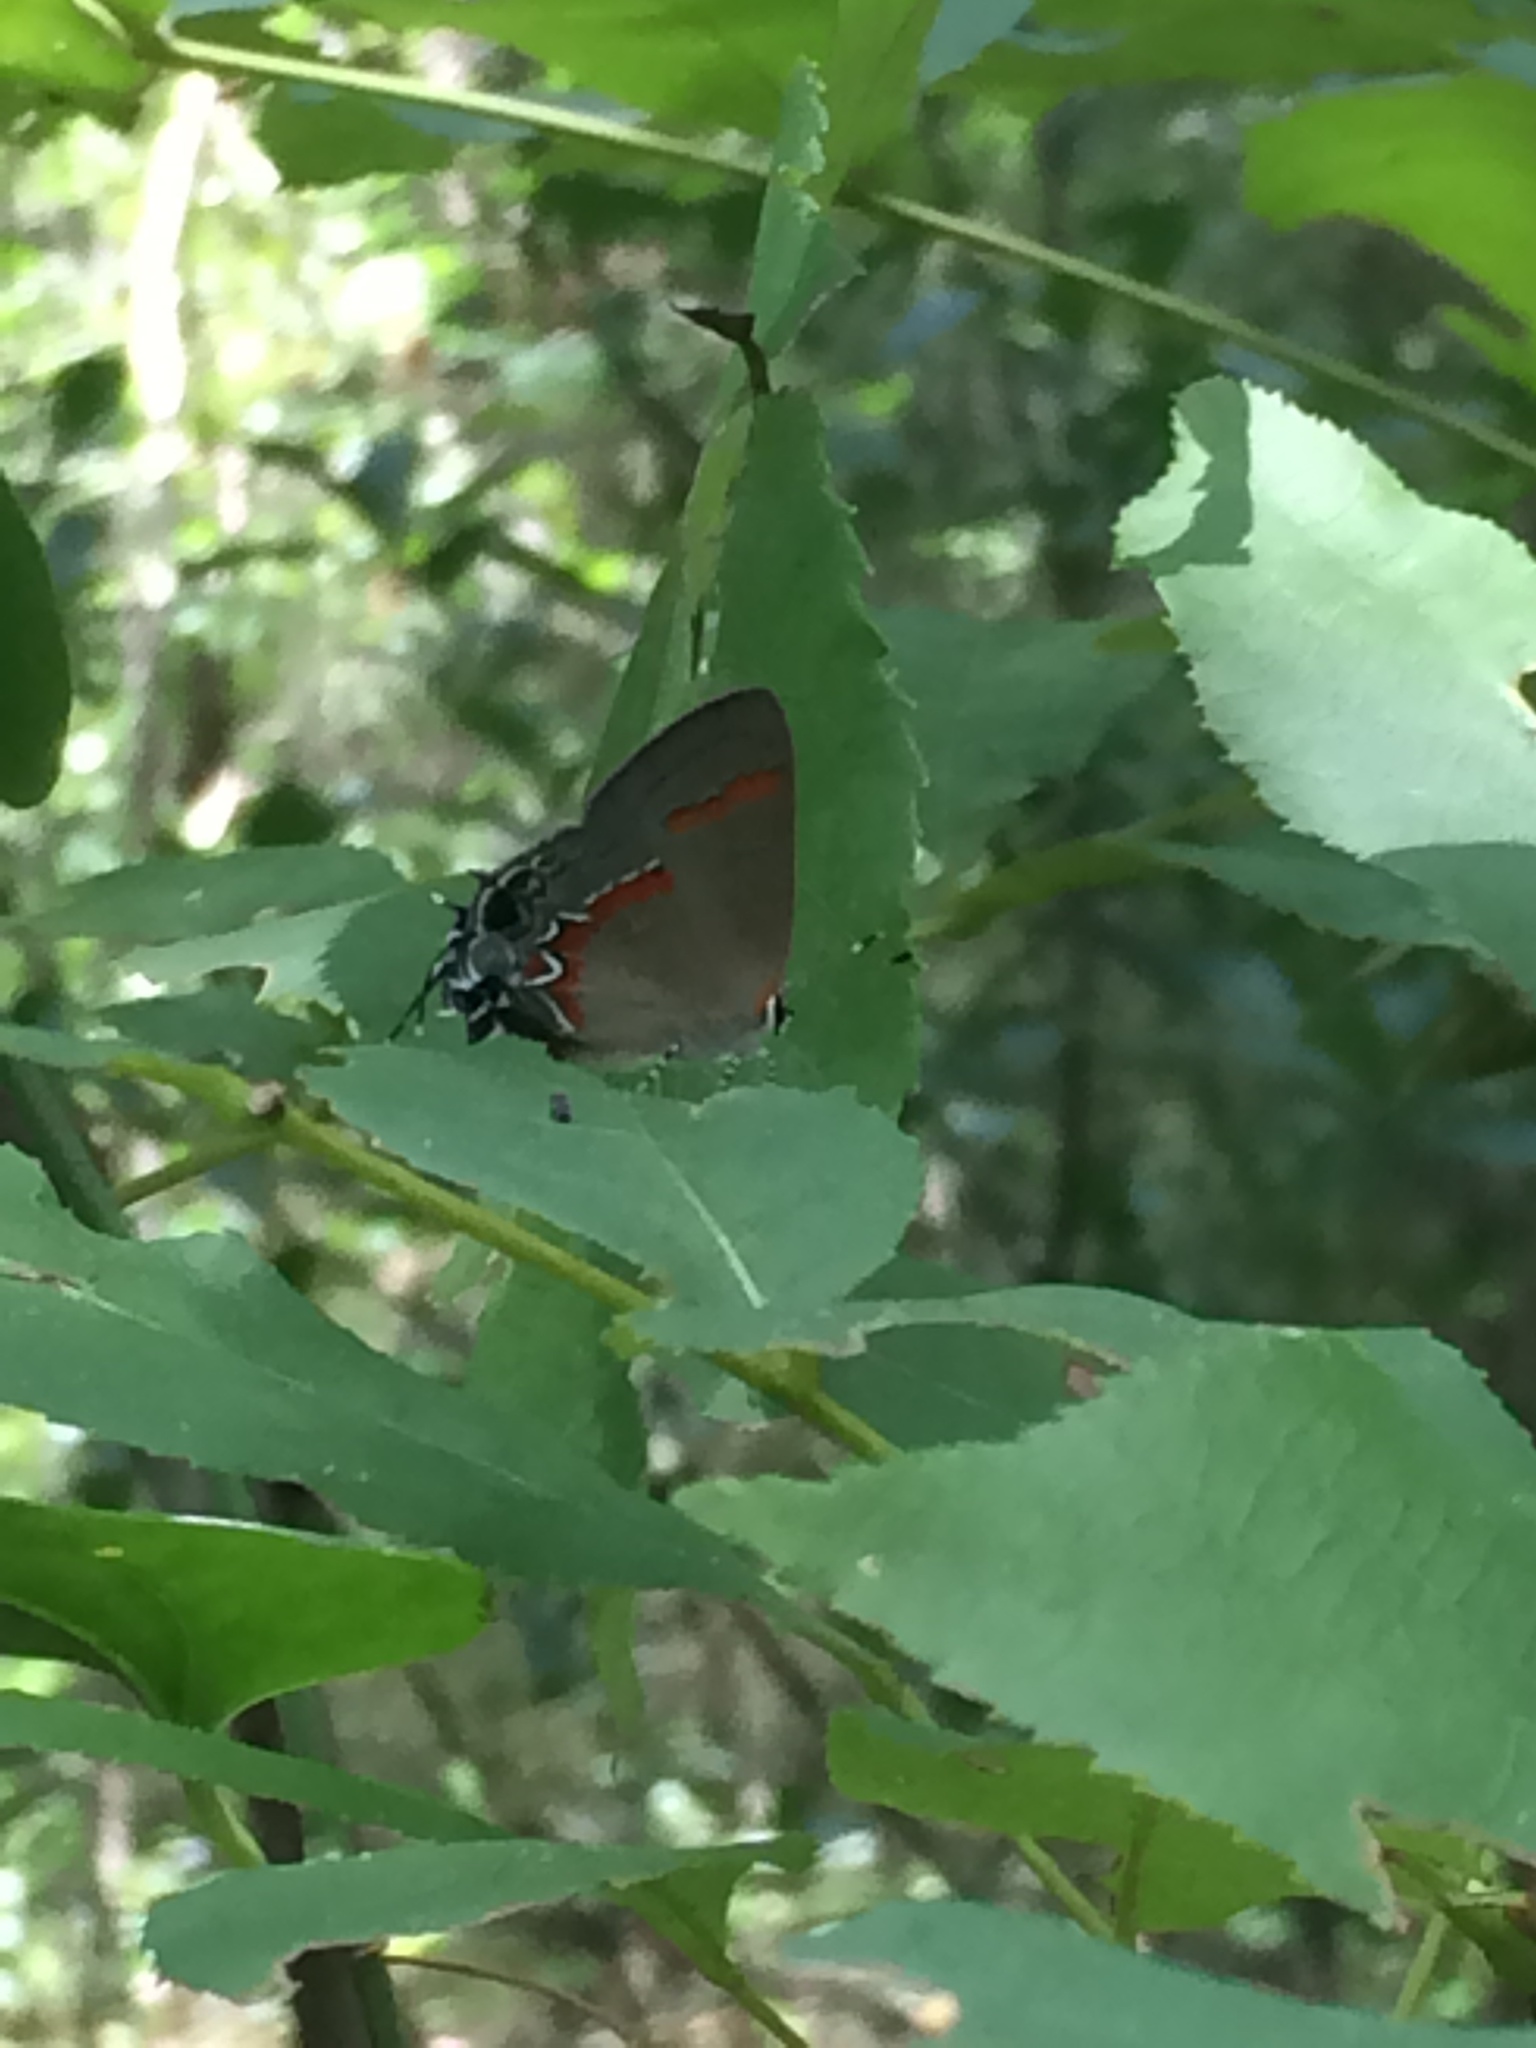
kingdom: Animalia
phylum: Arthropoda
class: Insecta
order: Lepidoptera
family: Lycaenidae
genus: Calycopis
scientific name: Calycopis cecrops
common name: Red-banded hairstreak
